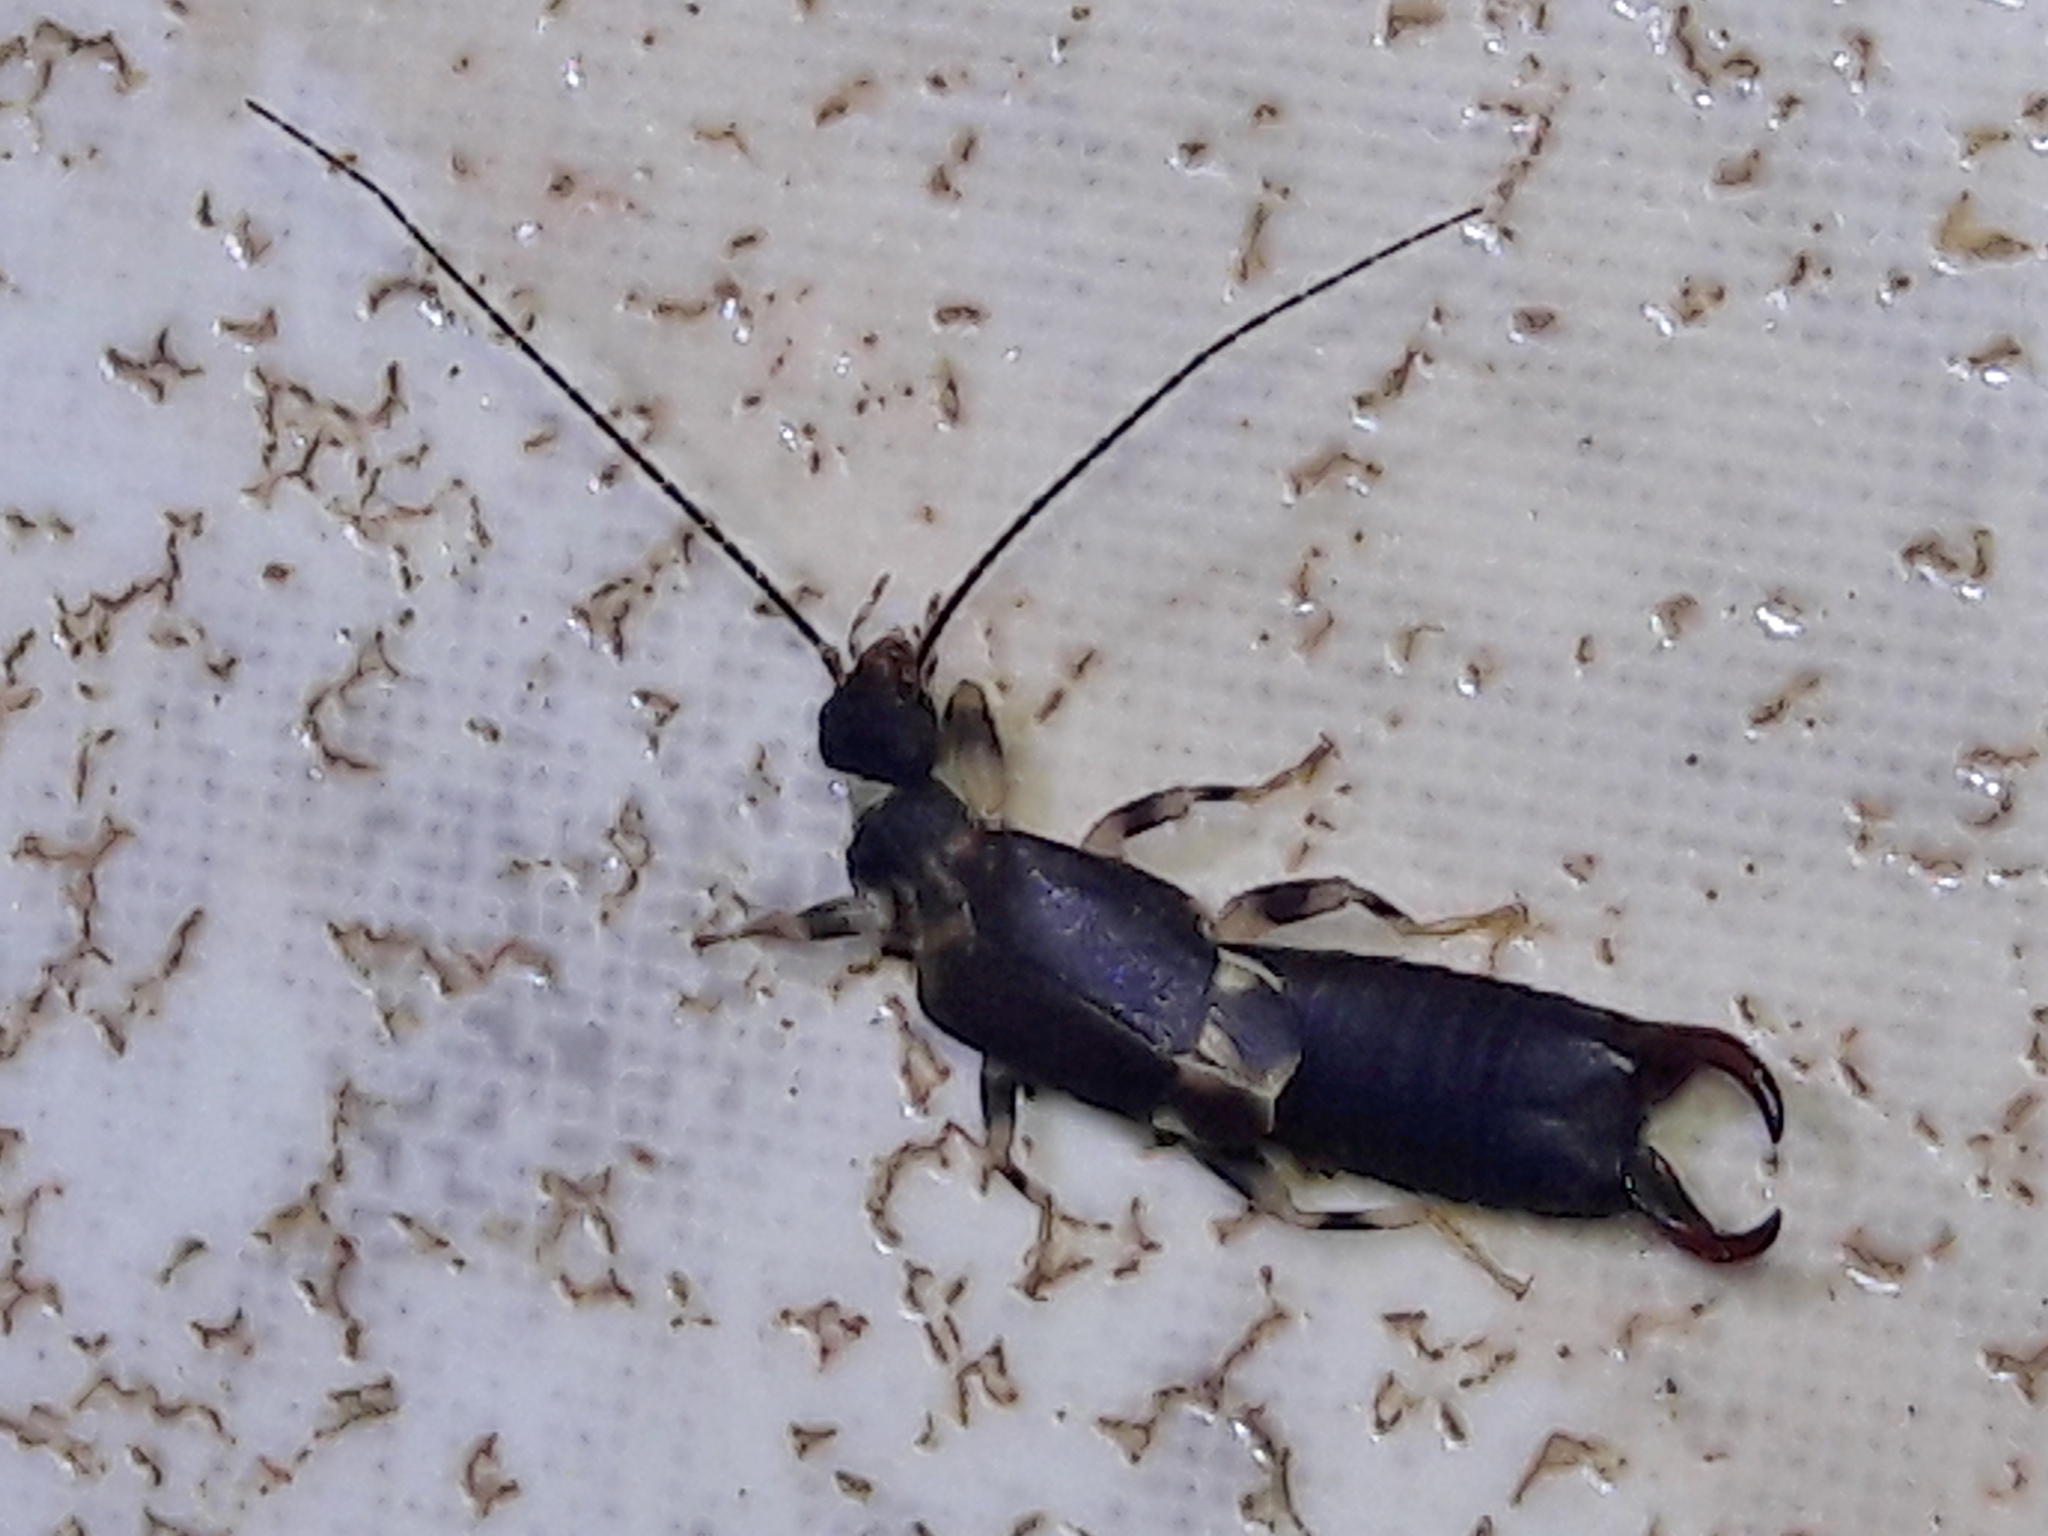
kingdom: Animalia
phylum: Arthropoda
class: Insecta
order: Dermaptera
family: Pygidicranidae
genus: Pyragropsis
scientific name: Pyragropsis emarginata
